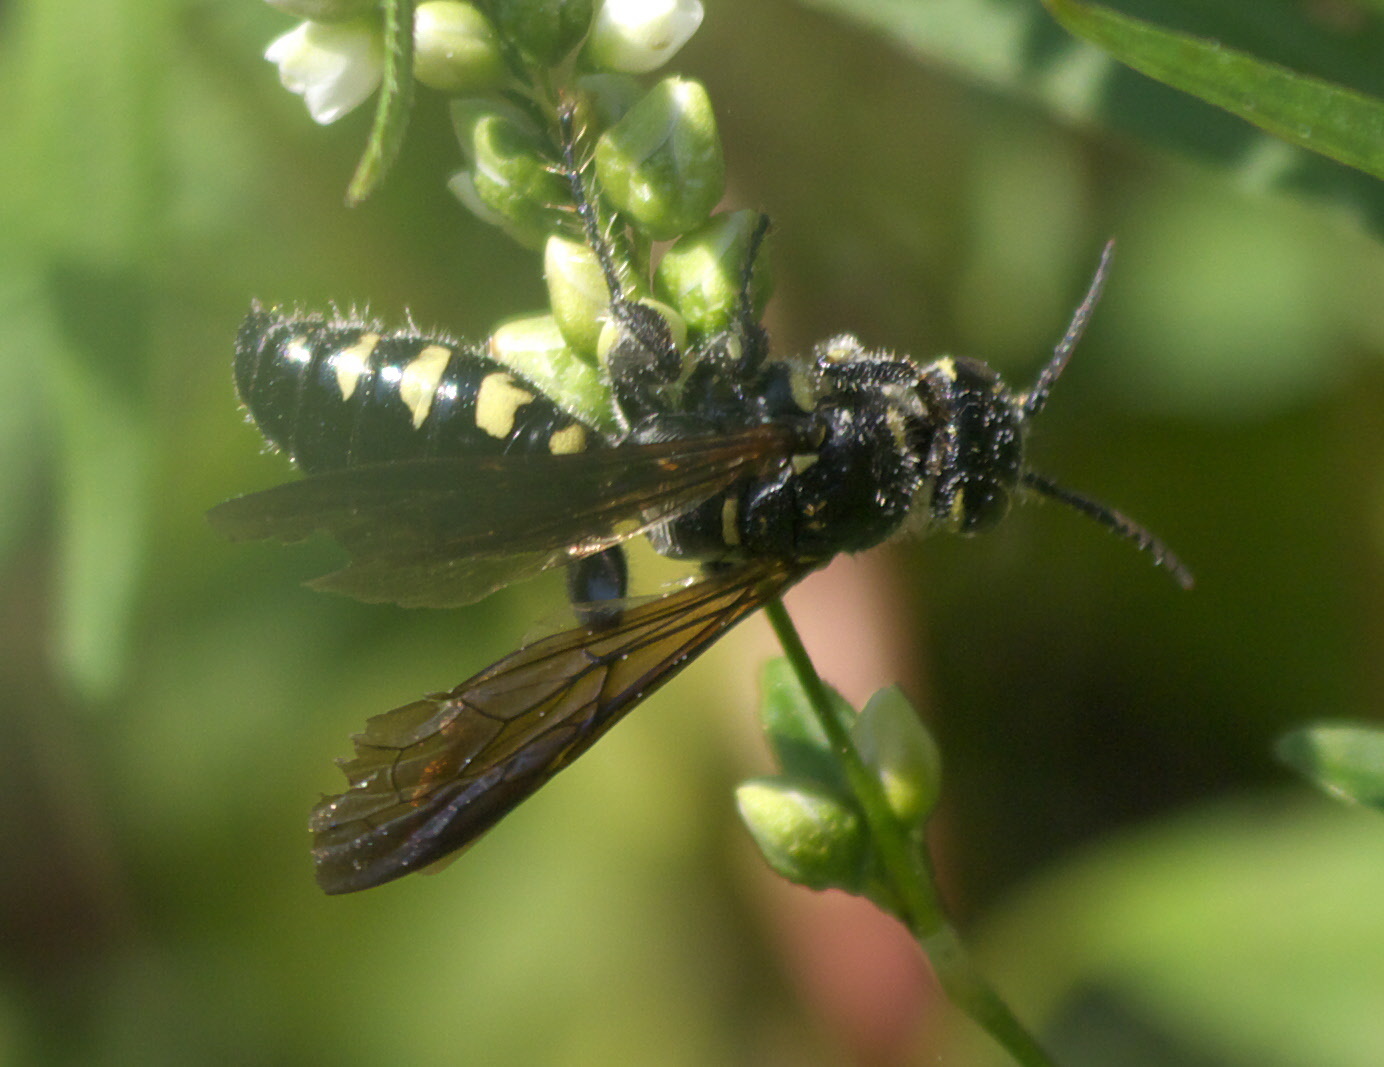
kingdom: Animalia
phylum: Arthropoda
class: Insecta
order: Hymenoptera
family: Tiphiidae
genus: Myzinum
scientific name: Myzinum obscurum
